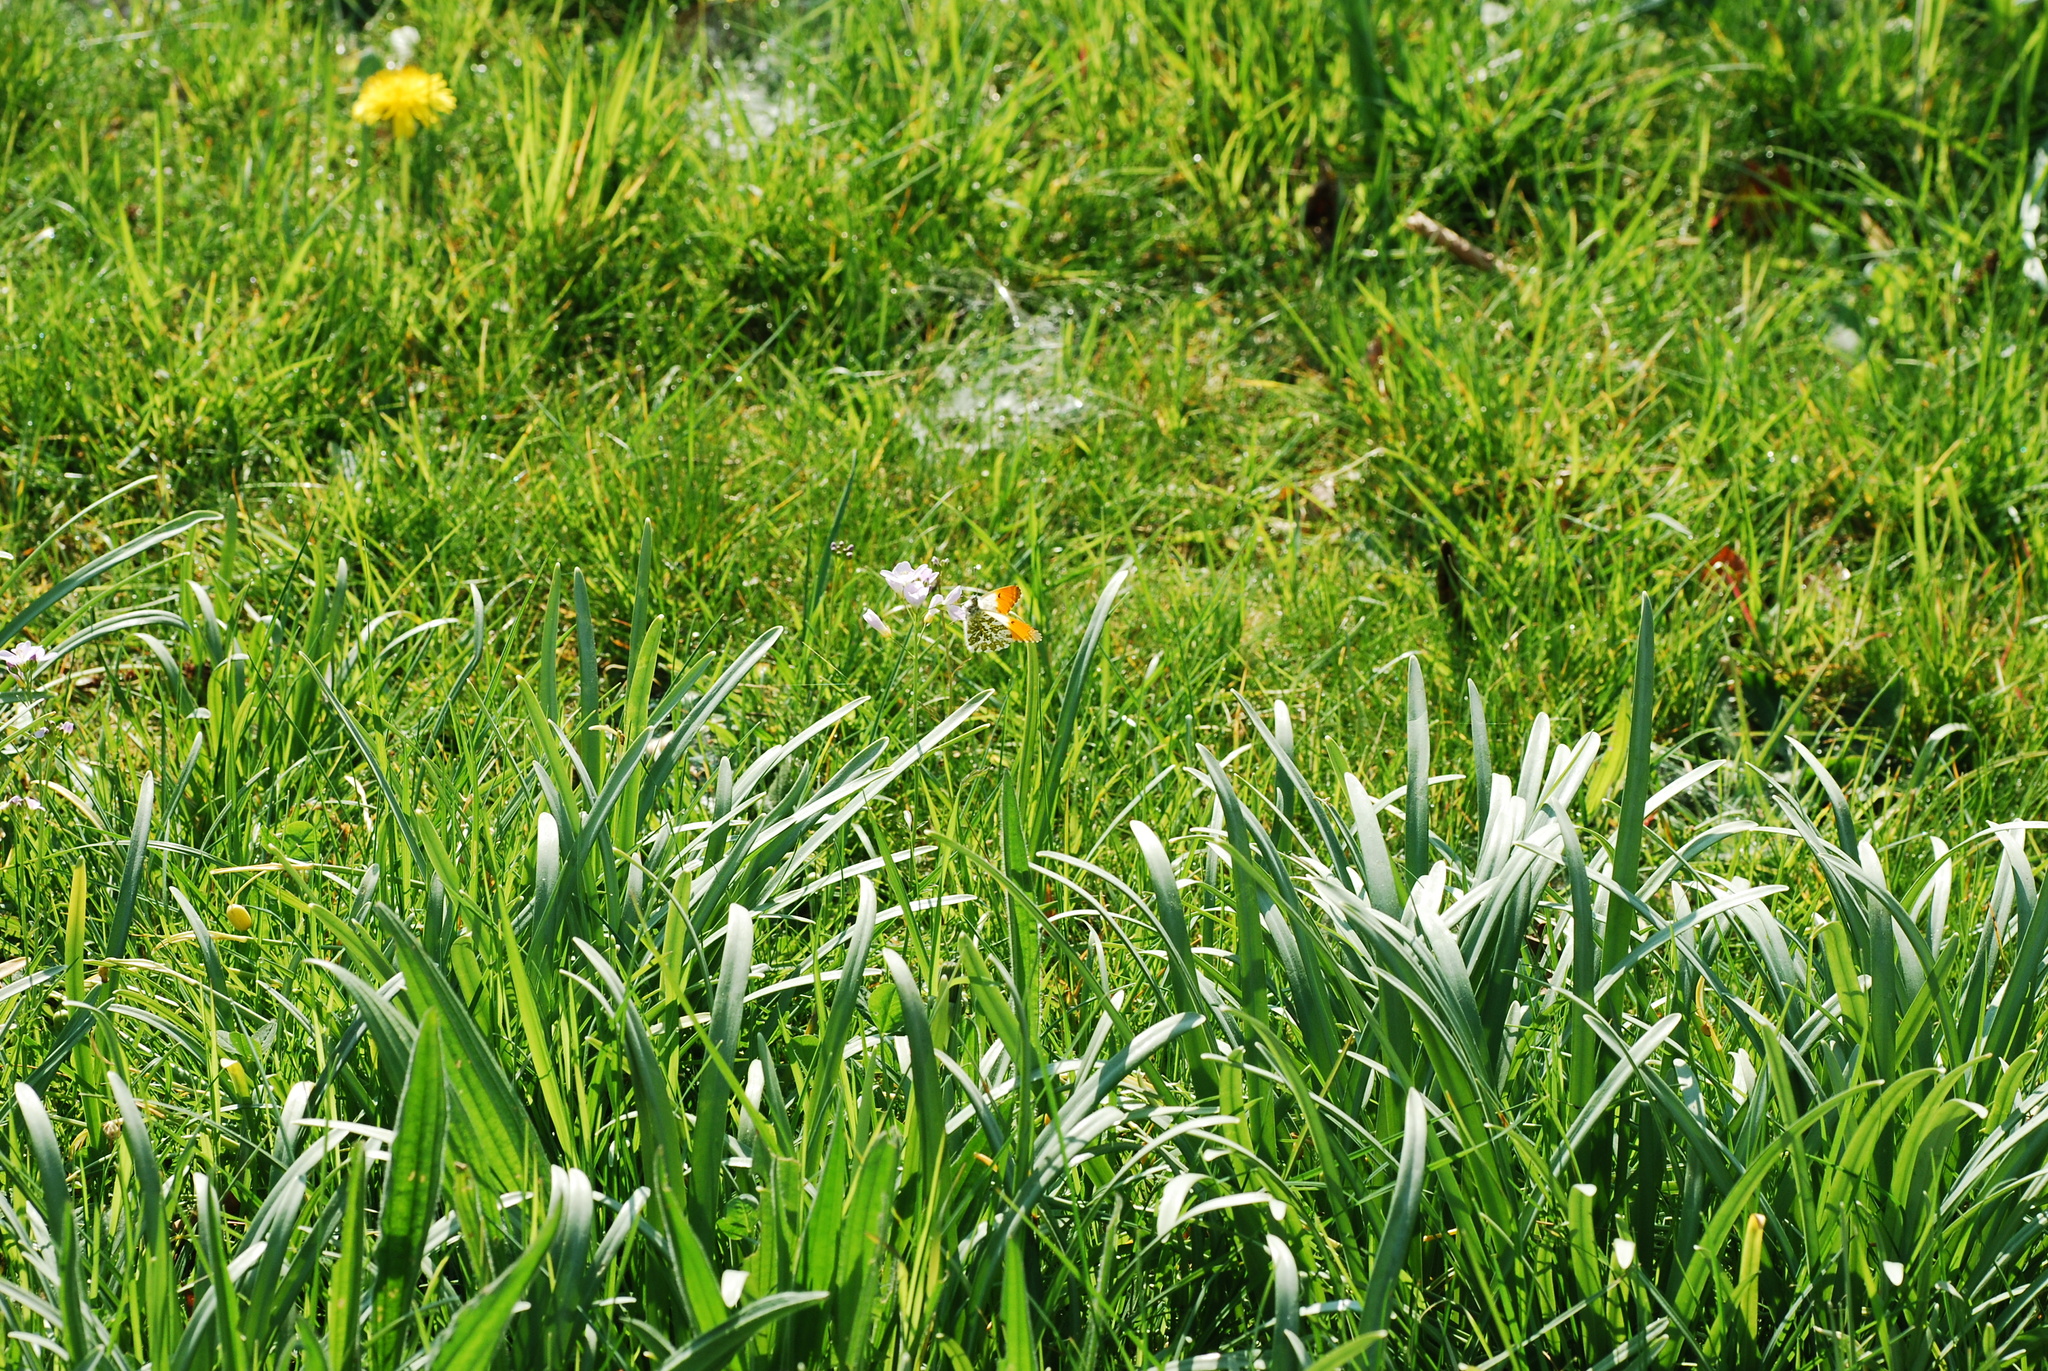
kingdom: Animalia
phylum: Arthropoda
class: Insecta
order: Lepidoptera
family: Pieridae
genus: Anthocharis
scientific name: Anthocharis cardamines
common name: Orange-tip
